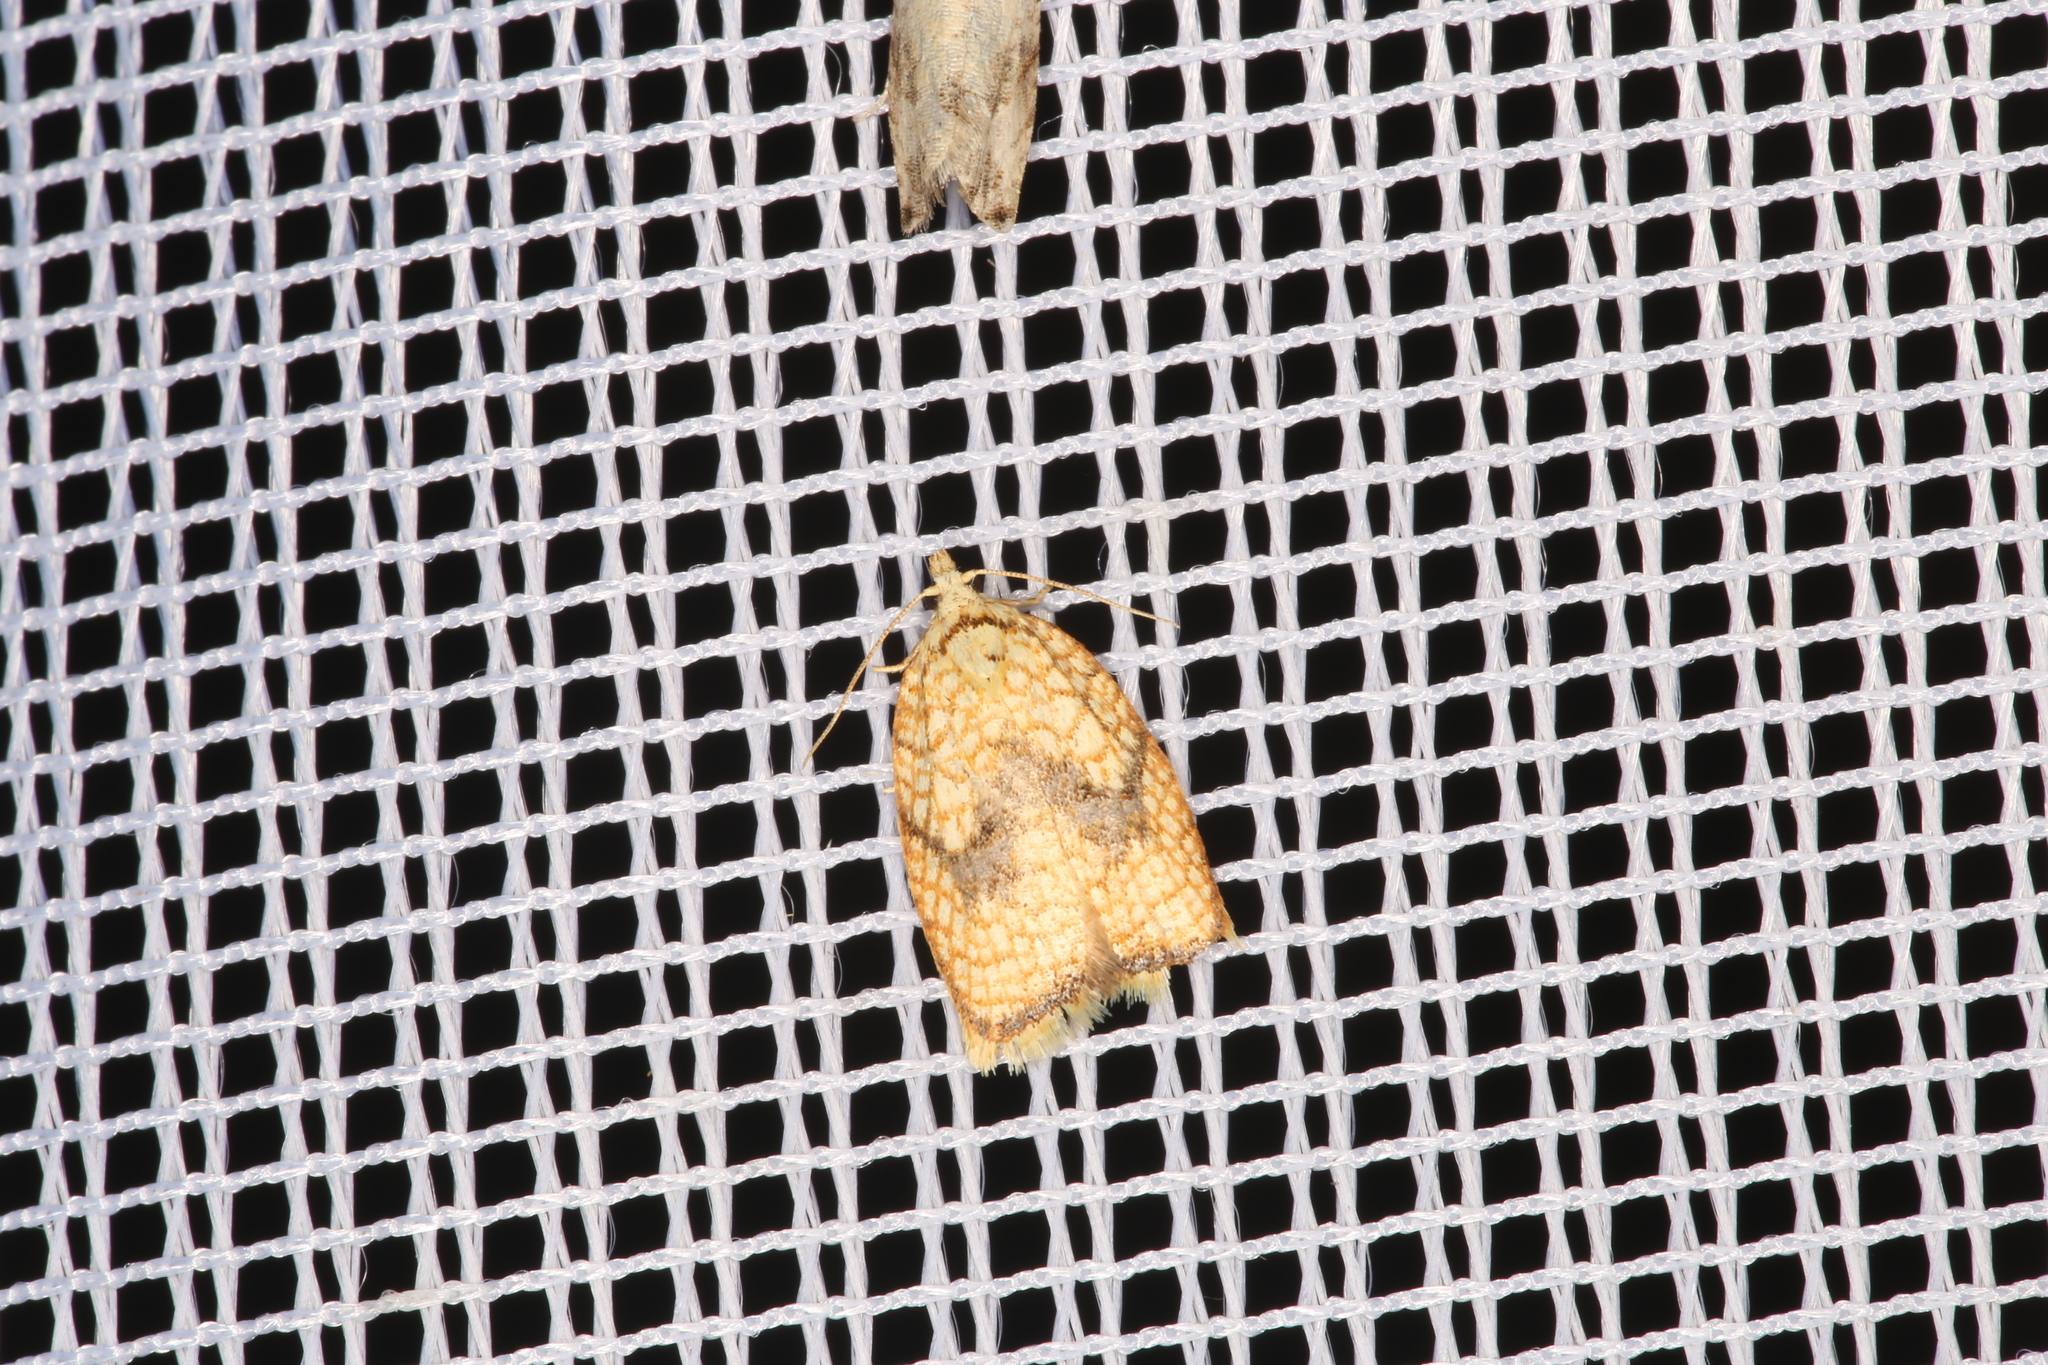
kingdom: Animalia
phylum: Arthropoda
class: Insecta
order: Lepidoptera
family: Tortricidae
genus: Acleris
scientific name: Acleris forsskaleana
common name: Maple button
